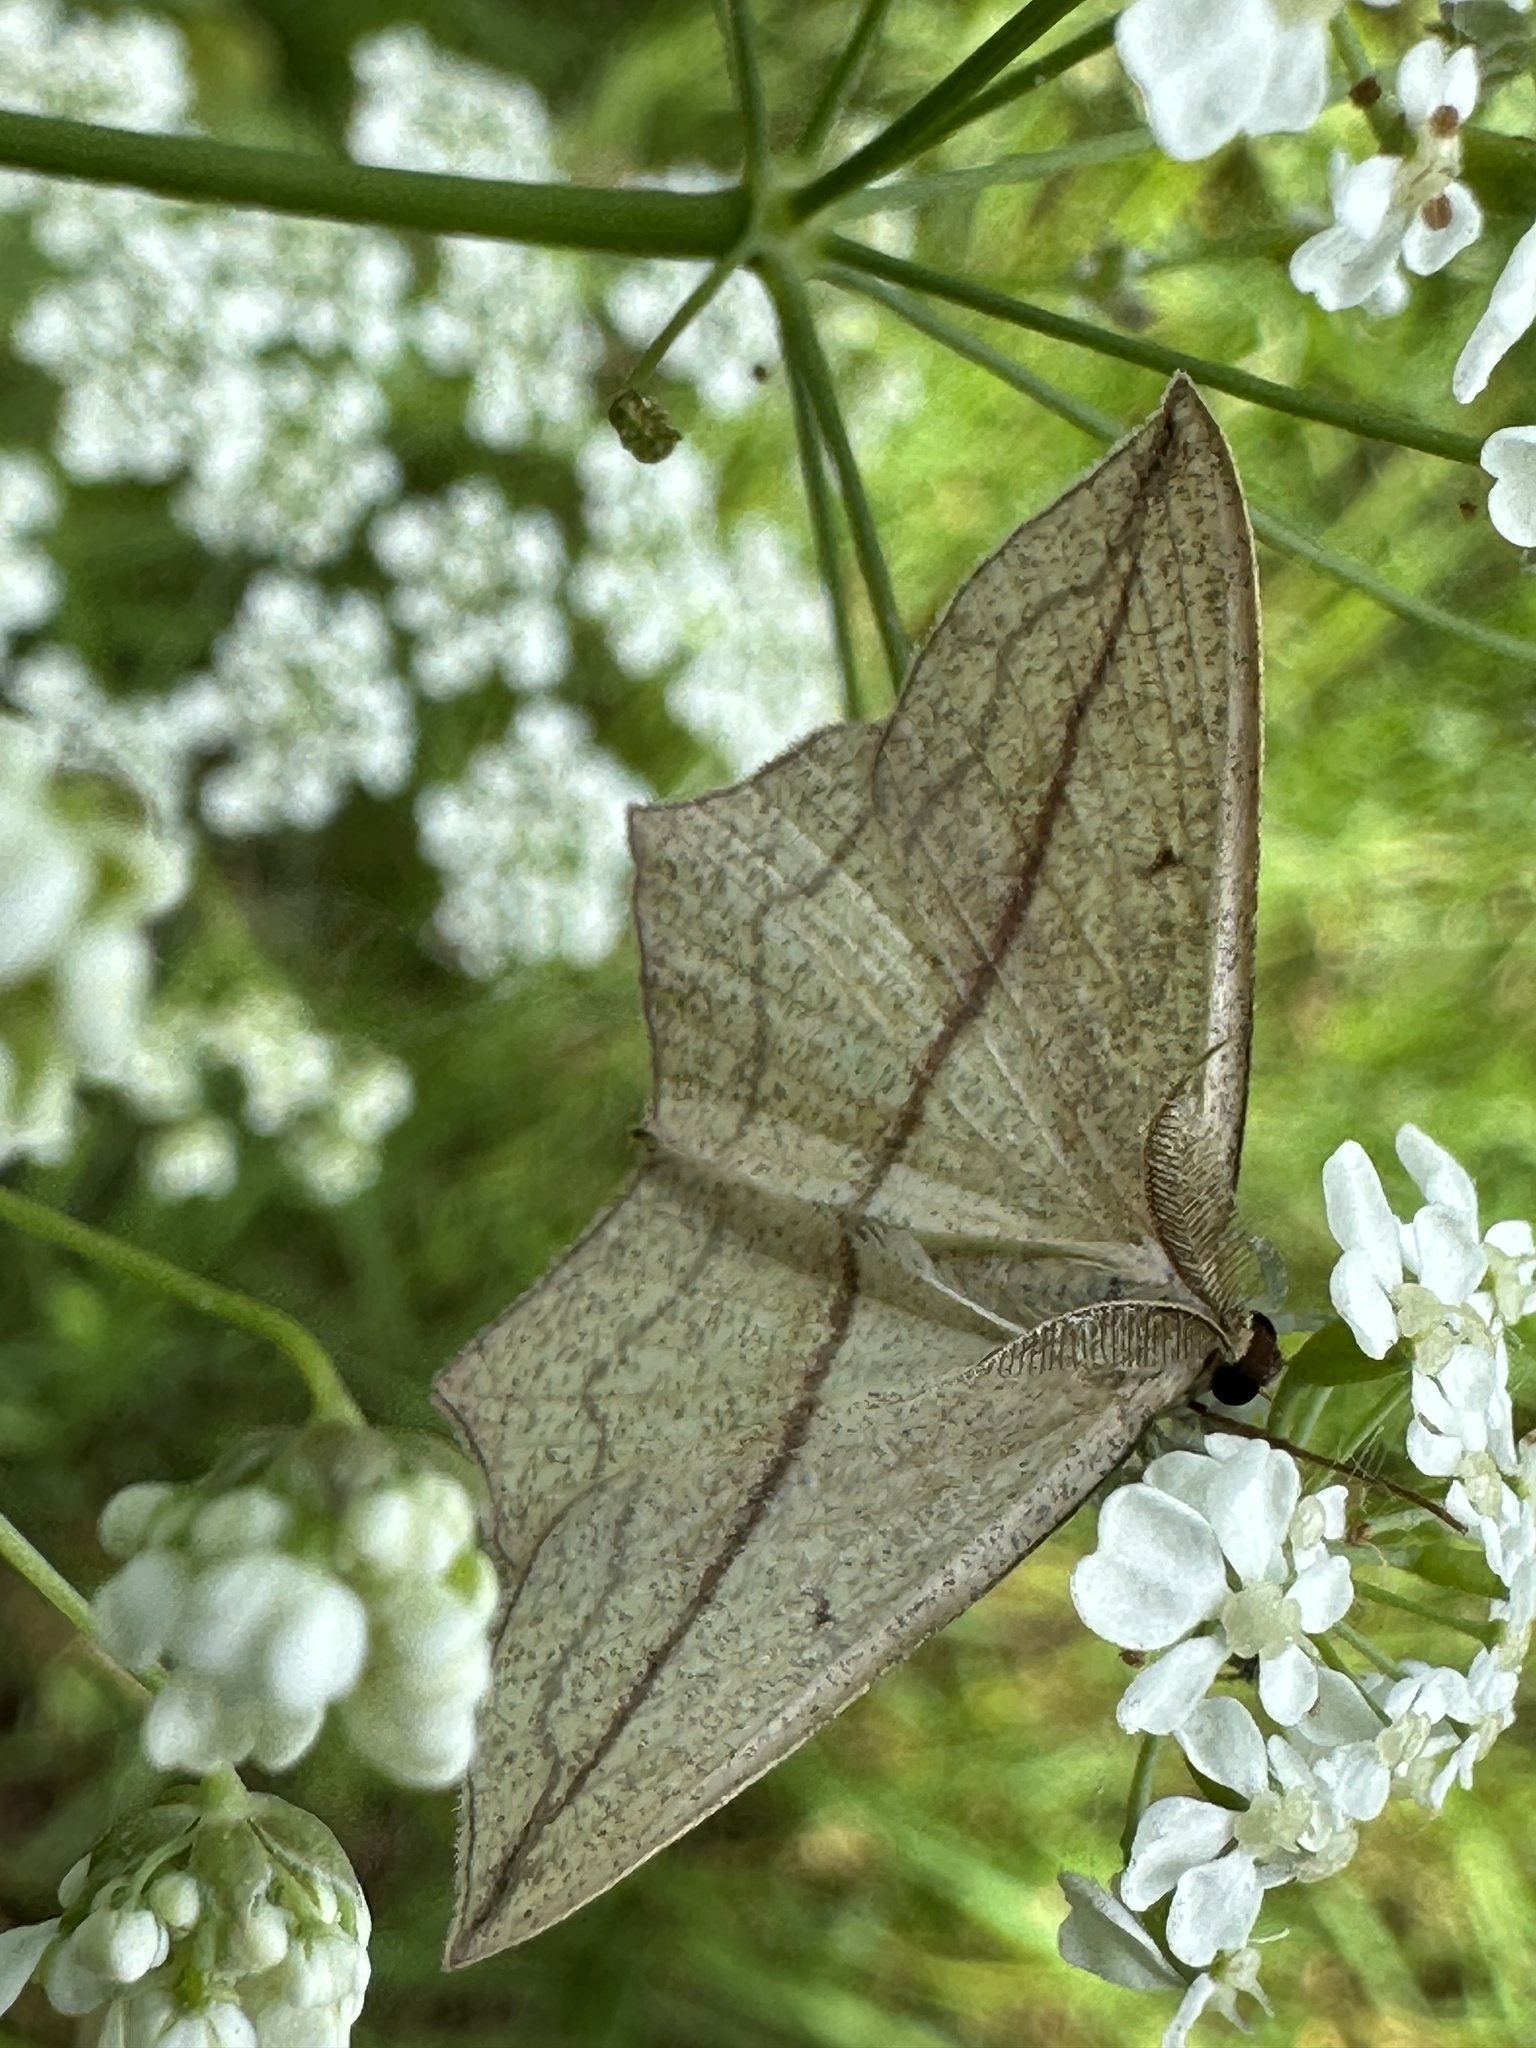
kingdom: Animalia
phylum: Arthropoda
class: Insecta
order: Lepidoptera
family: Geometridae
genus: Timandra
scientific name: Timandra comae
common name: Blood-vein
